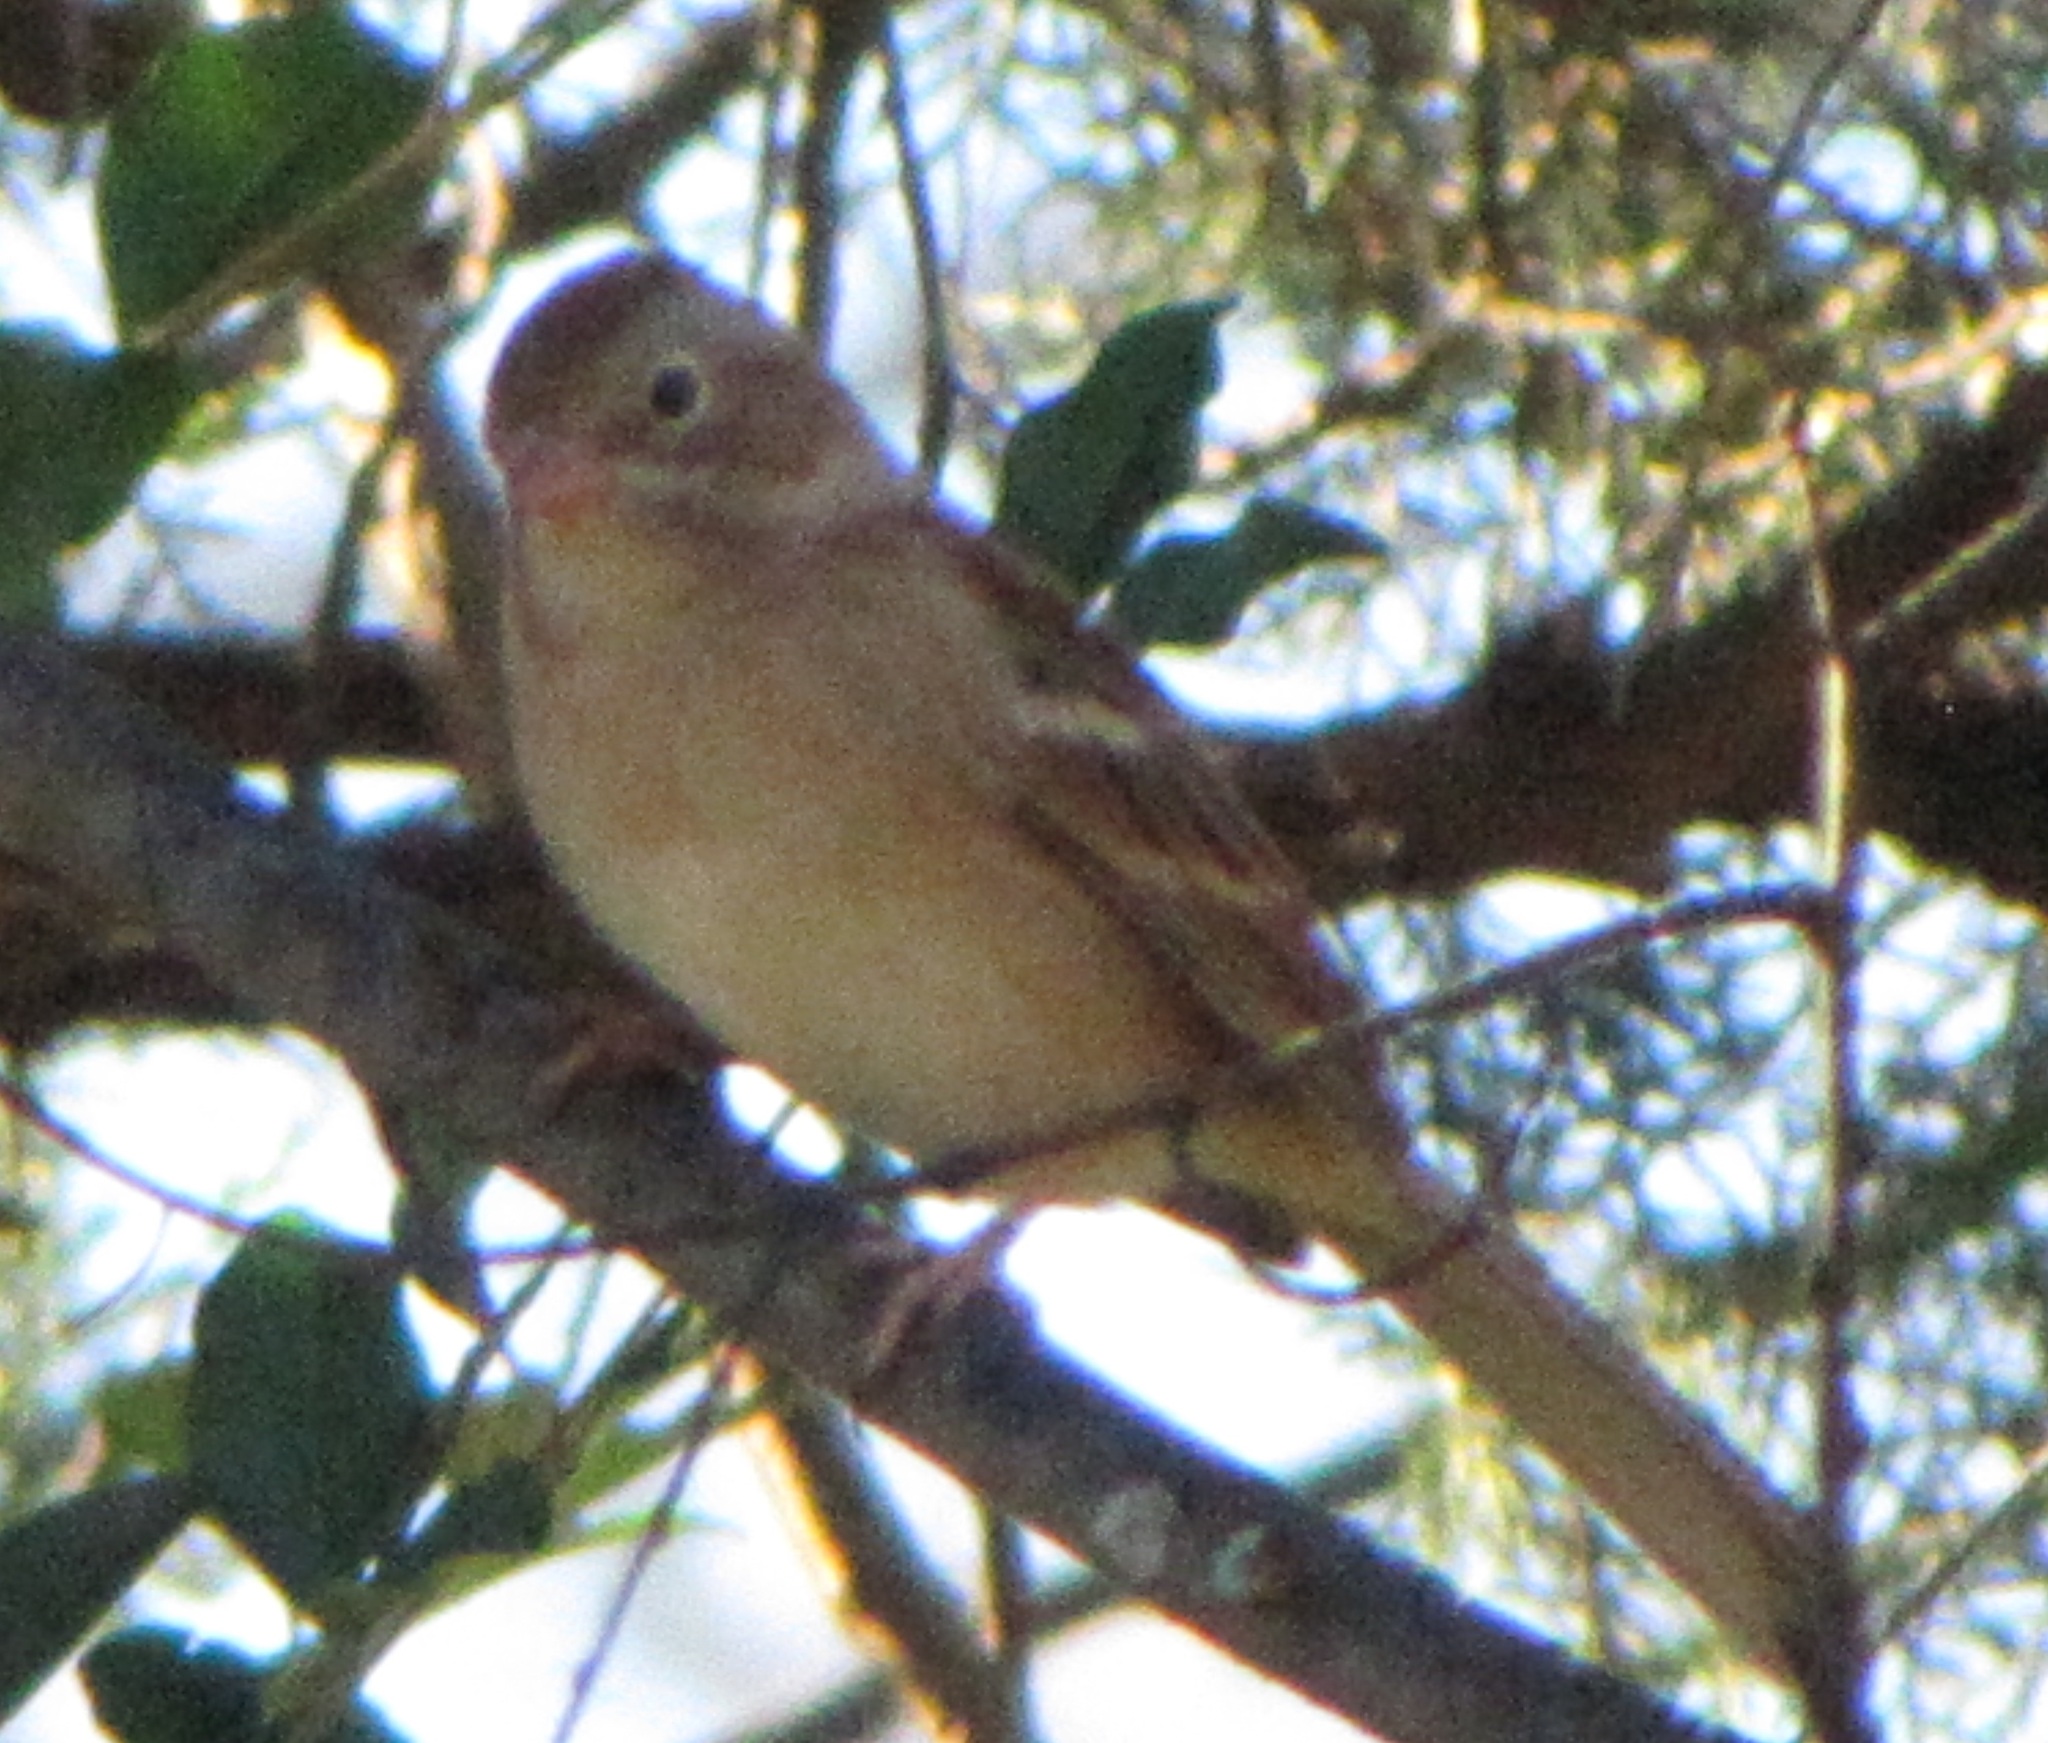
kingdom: Animalia
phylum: Chordata
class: Aves
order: Passeriformes
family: Passerellidae
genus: Spizella
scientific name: Spizella pusilla
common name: Field sparrow
